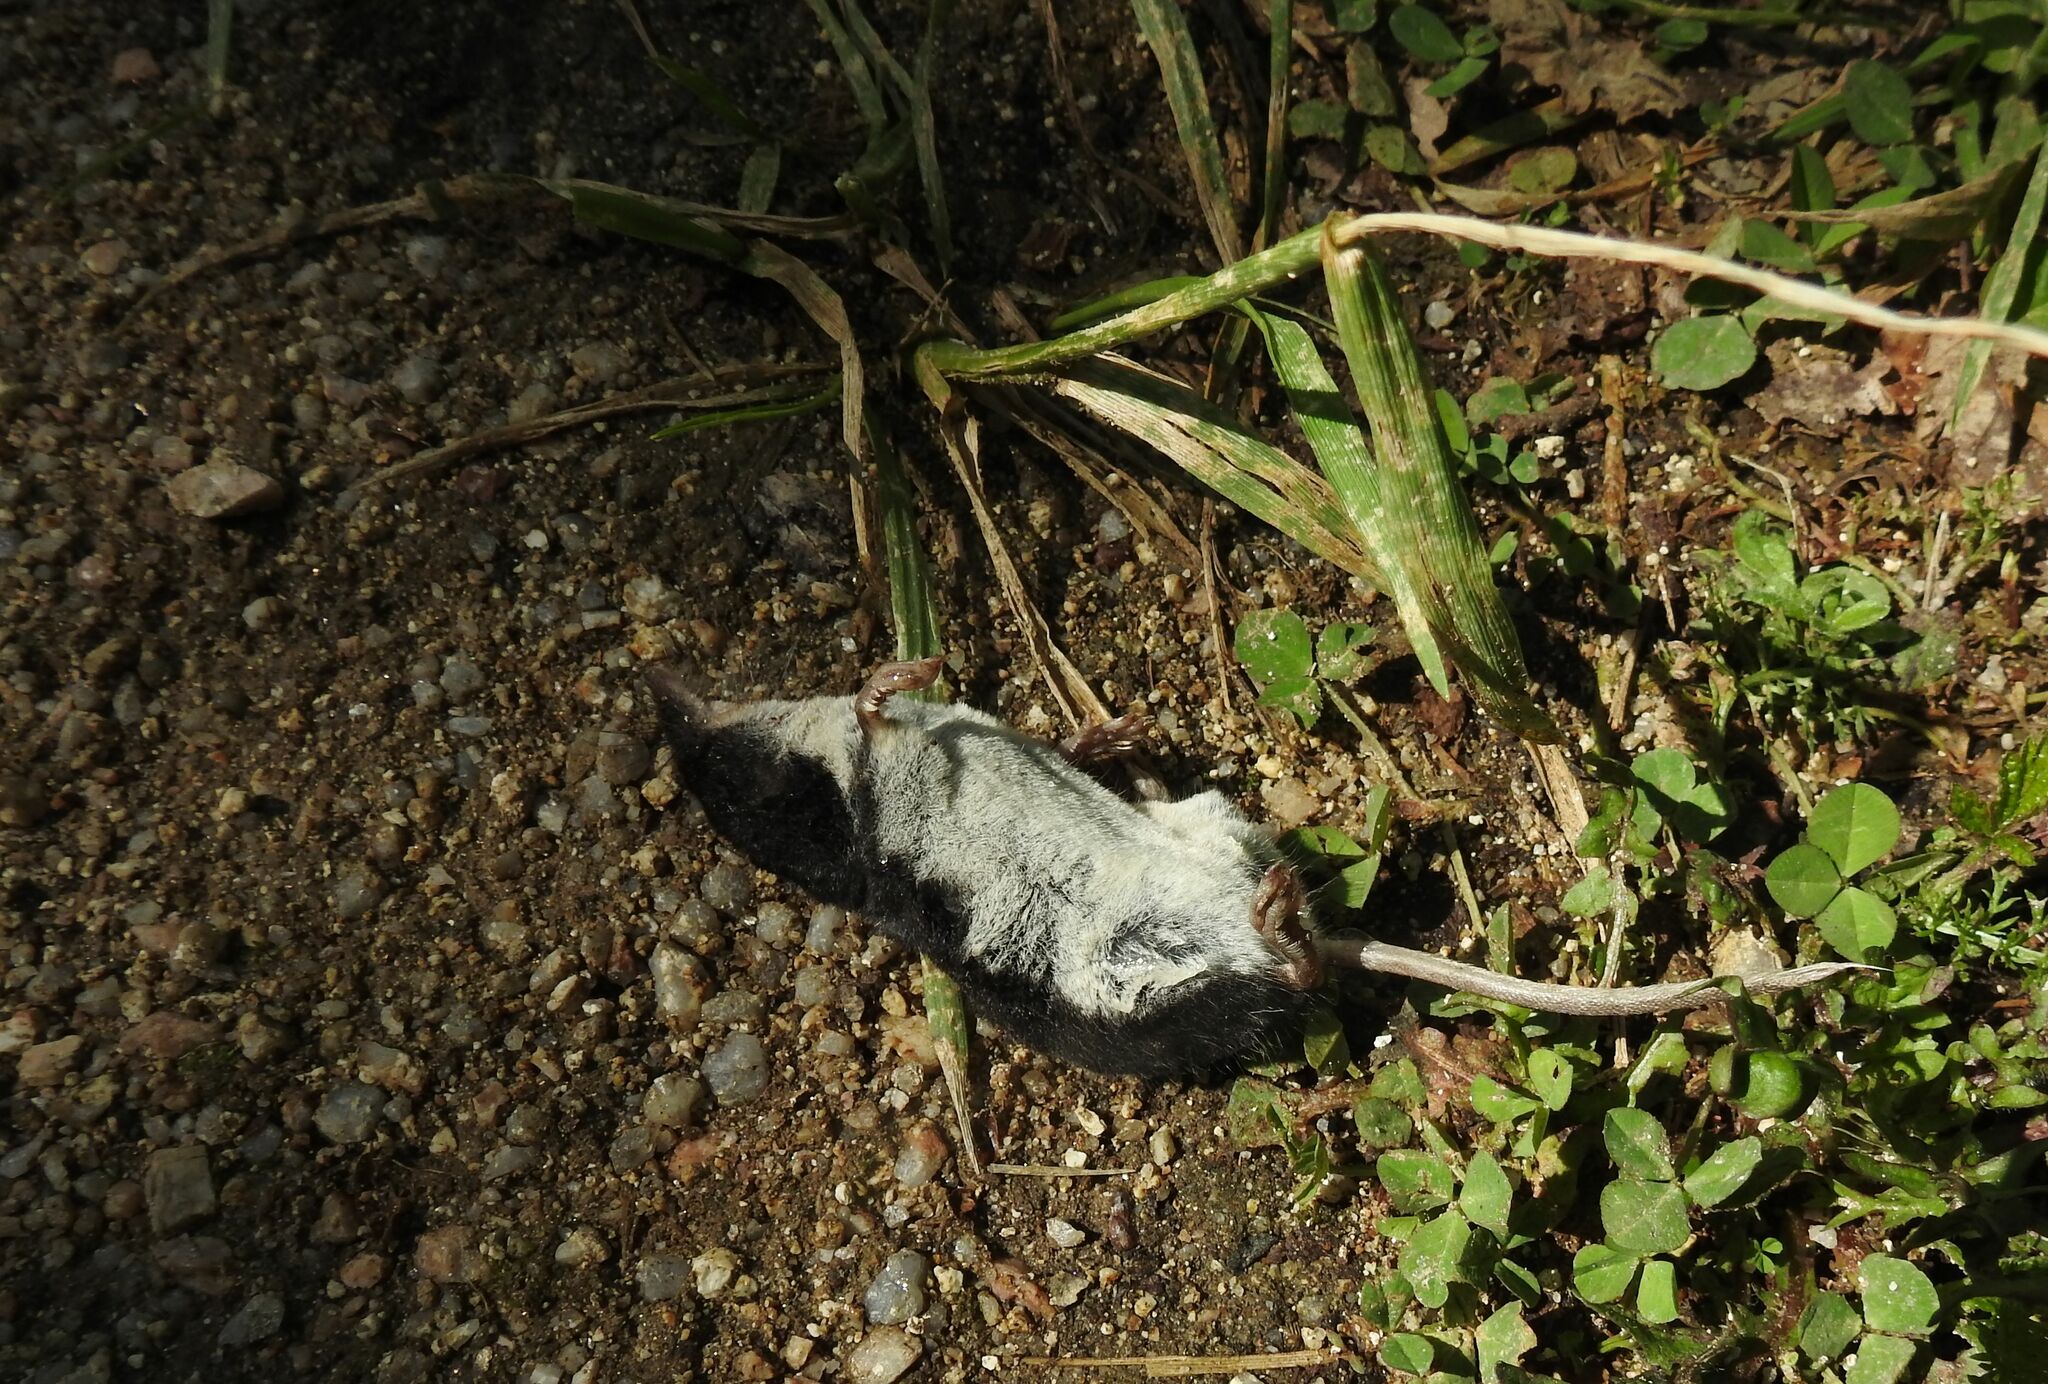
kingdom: Animalia
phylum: Chordata
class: Mammalia
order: Soricomorpha
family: Soricidae
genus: Neomys
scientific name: Neomys fodiens
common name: Eurasian water shrew
